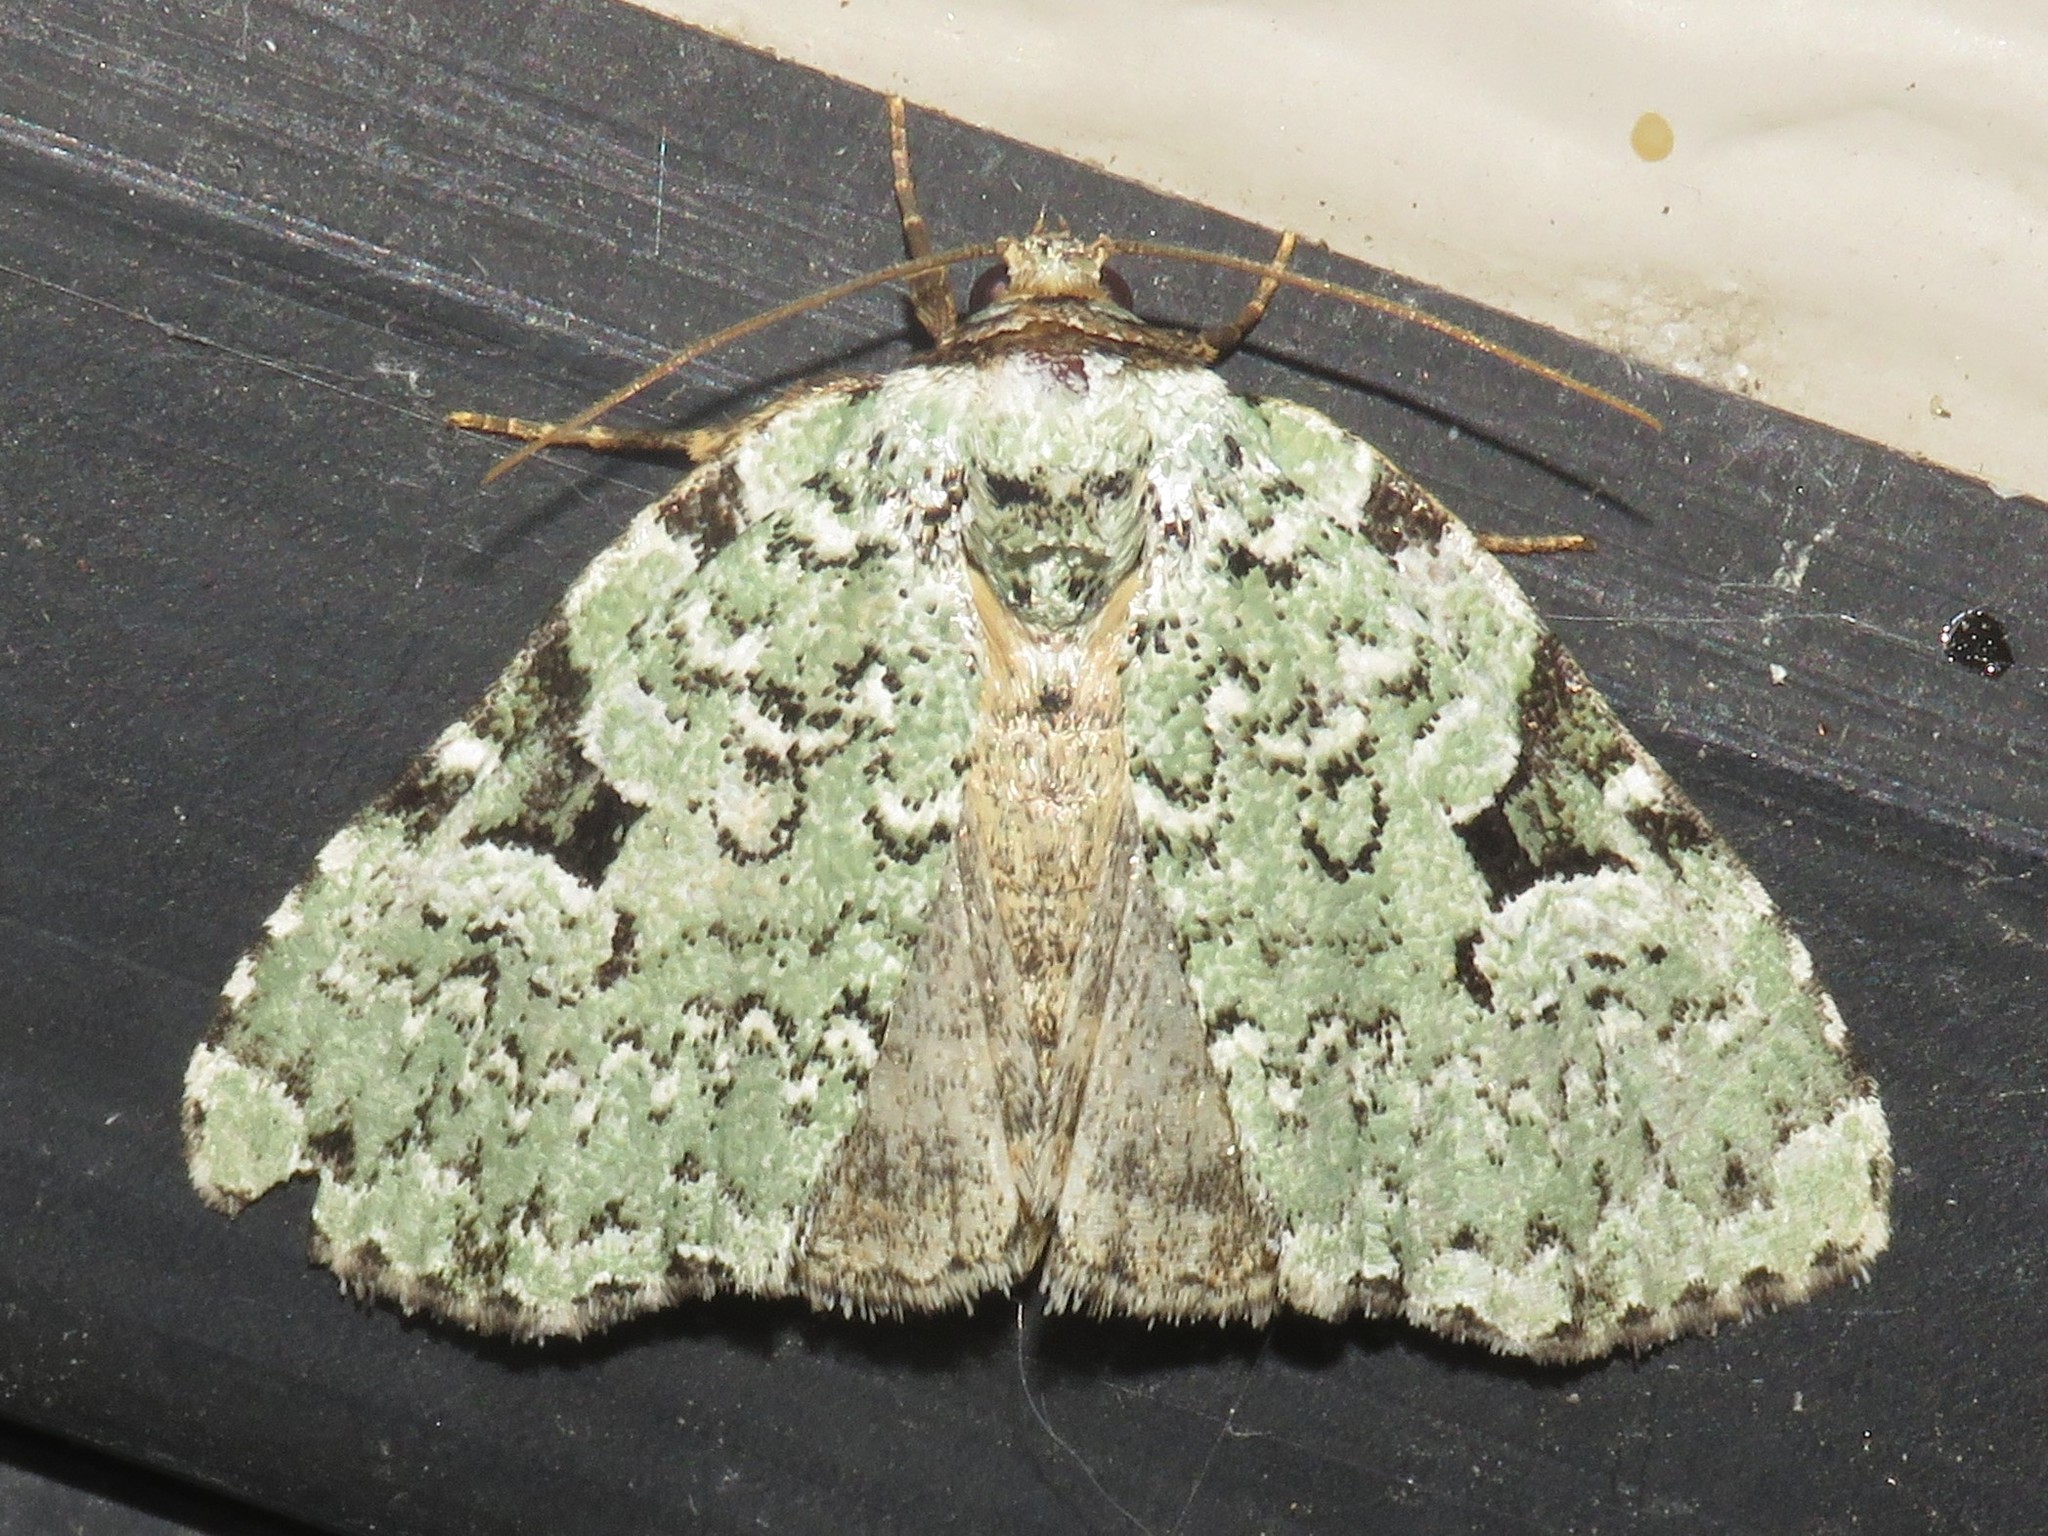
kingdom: Animalia
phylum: Arthropoda
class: Insecta
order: Lepidoptera
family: Noctuidae
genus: Leuconycta
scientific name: Leuconycta diphteroides
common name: Green leuconycta moth
